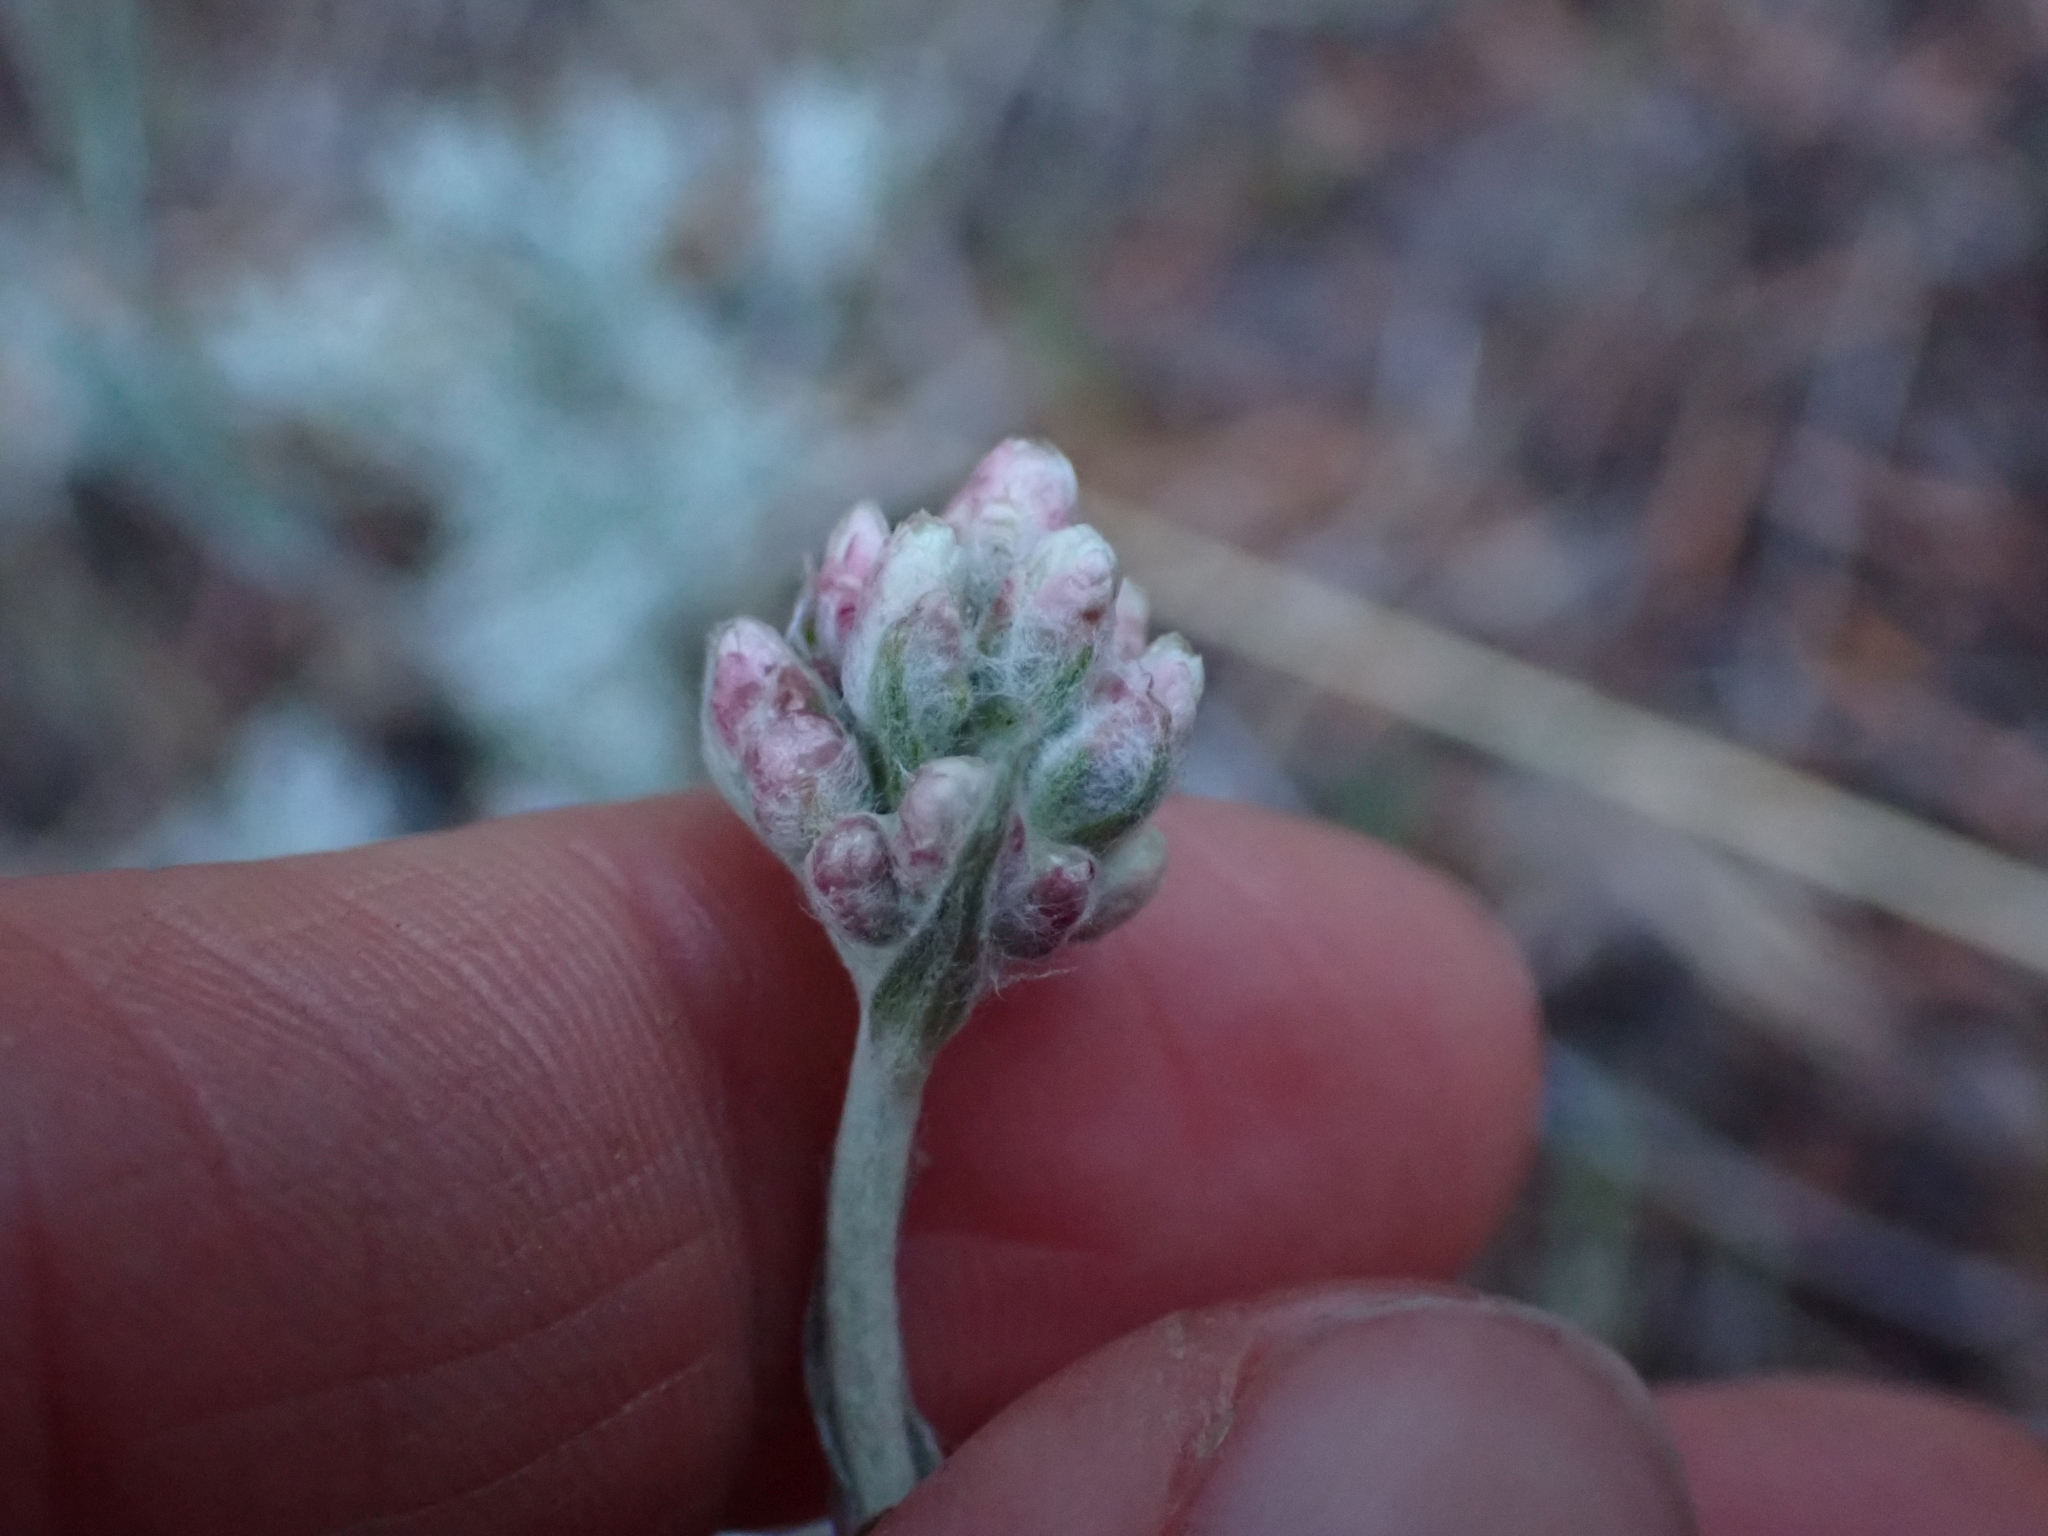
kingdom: Plantae
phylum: Tracheophyta
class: Magnoliopsida
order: Asterales
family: Asteraceae
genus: Antennaria
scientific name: Antennaria rosea
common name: Rosy pussytoes
